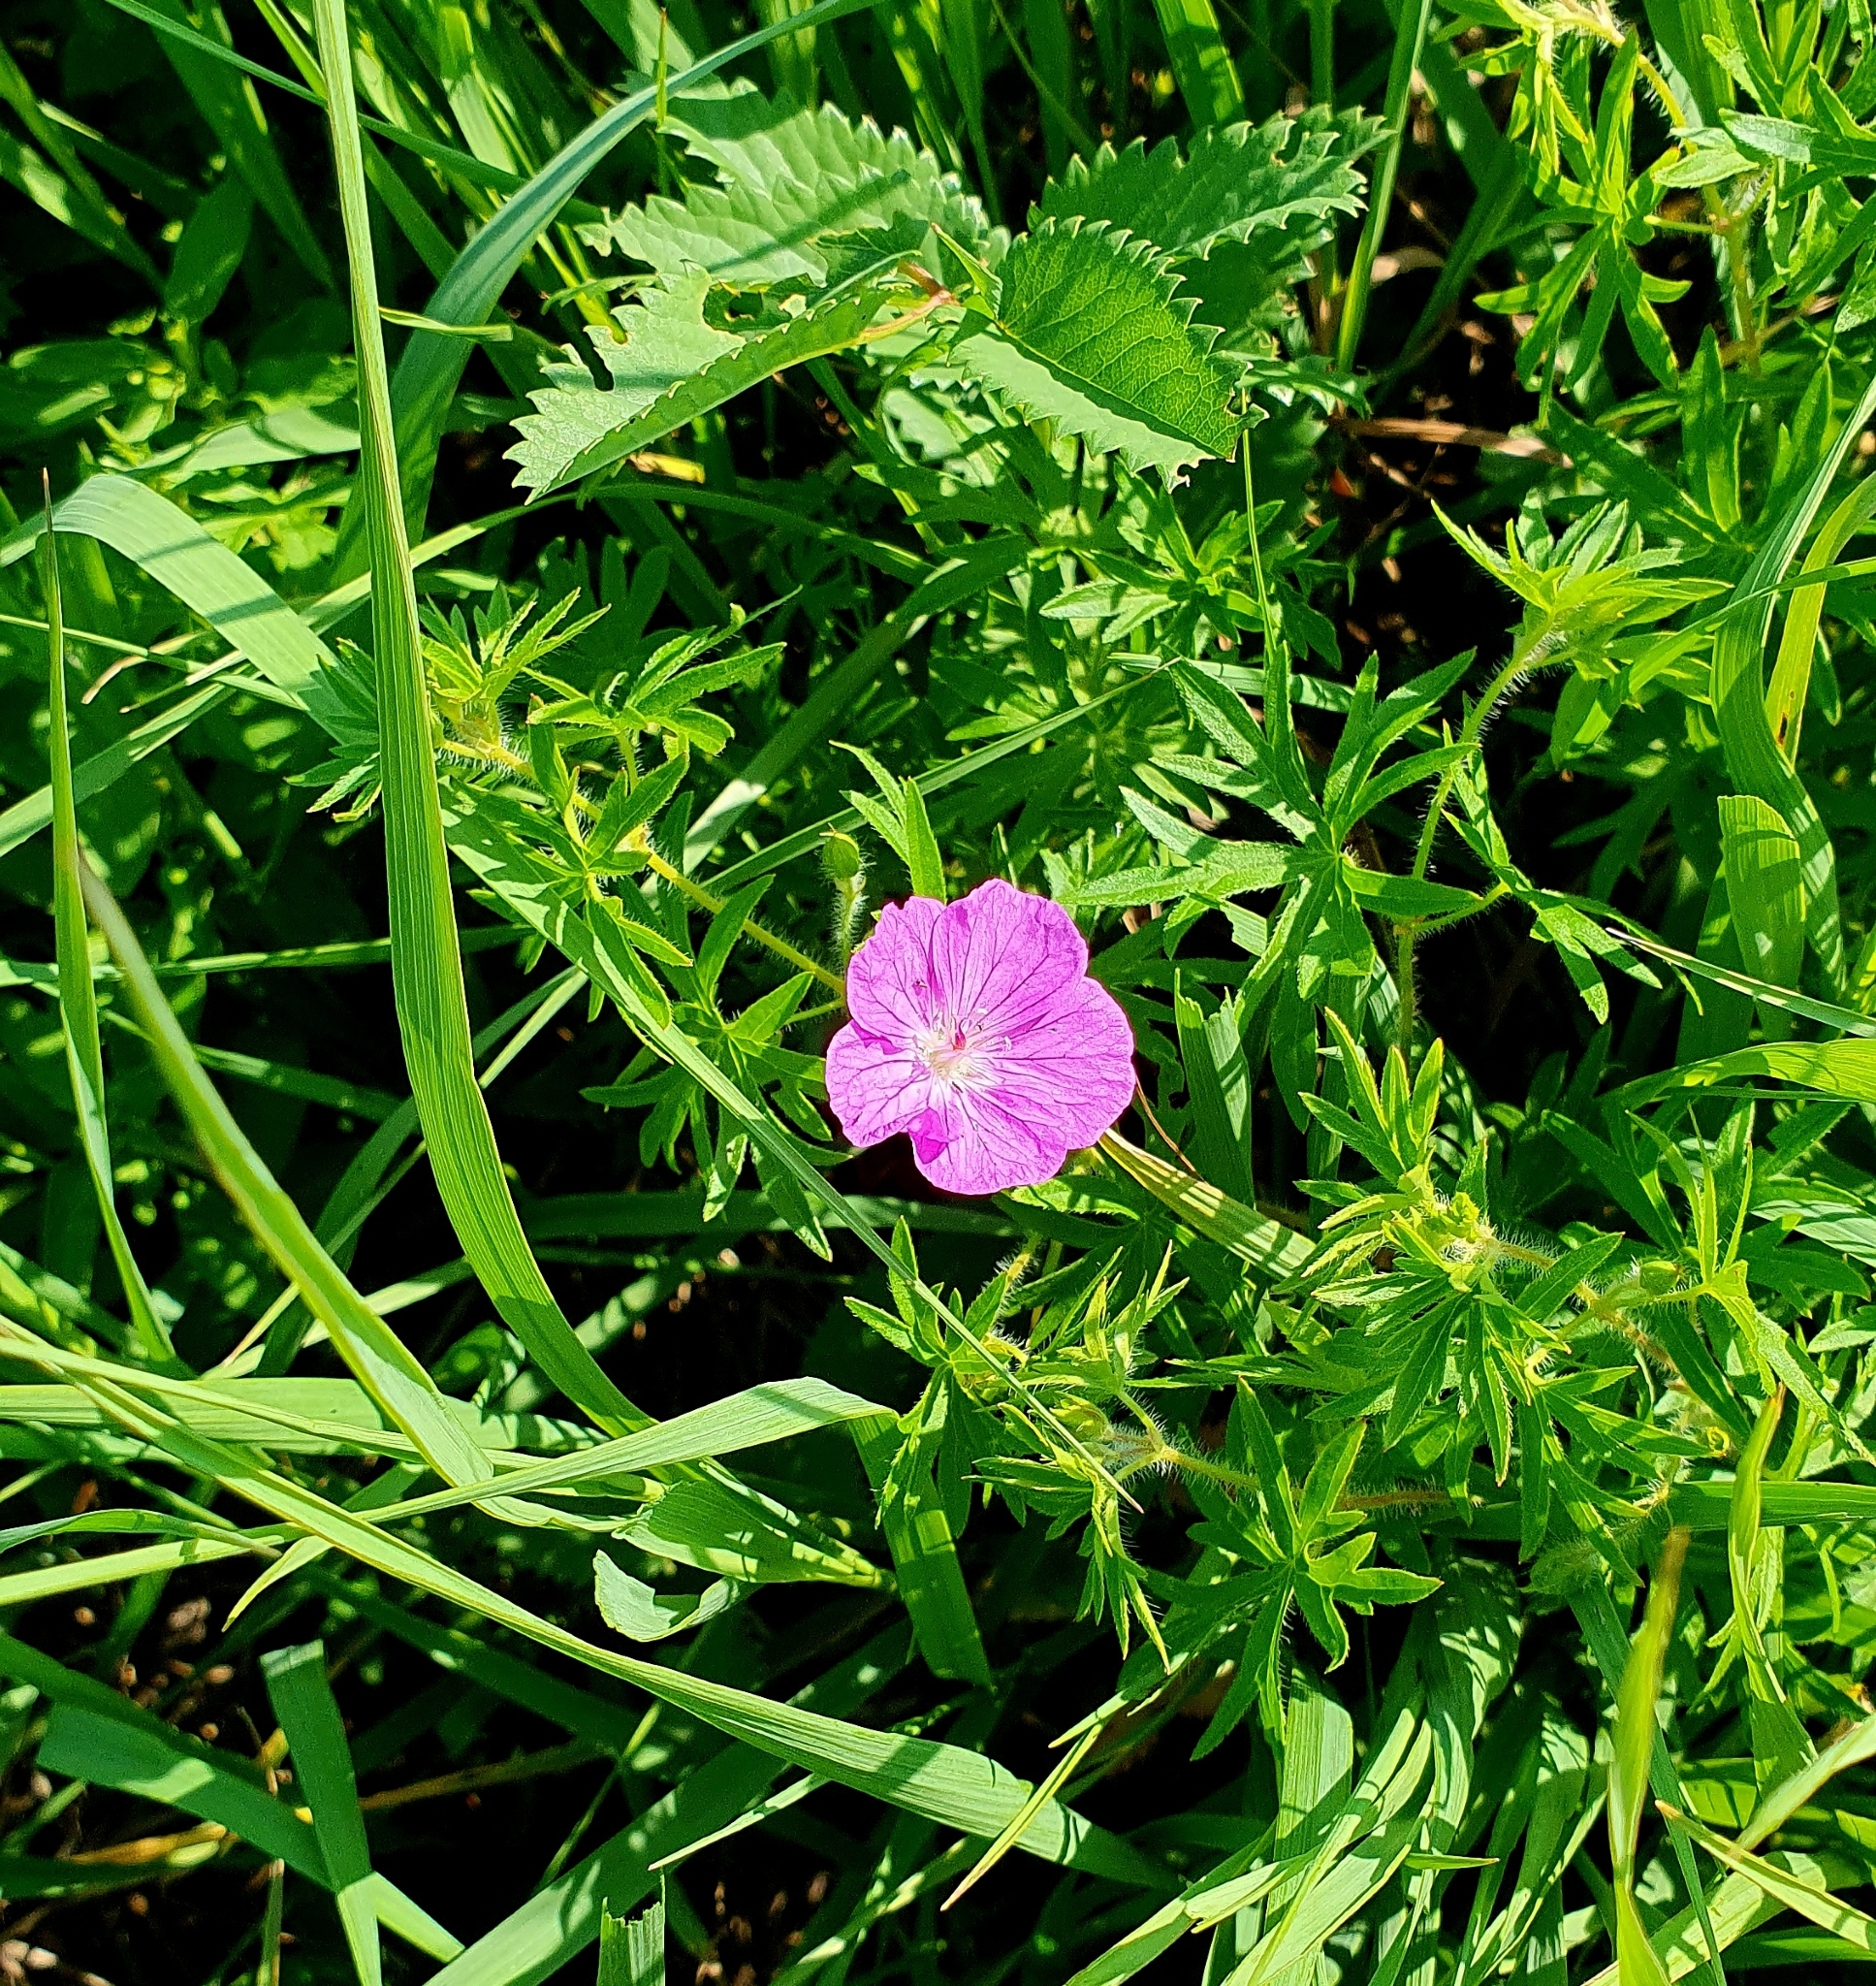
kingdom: Plantae
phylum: Tracheophyta
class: Magnoliopsida
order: Geraniales
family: Geraniaceae
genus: Geranium
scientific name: Geranium sanguineum
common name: Bloody crane's-bill
